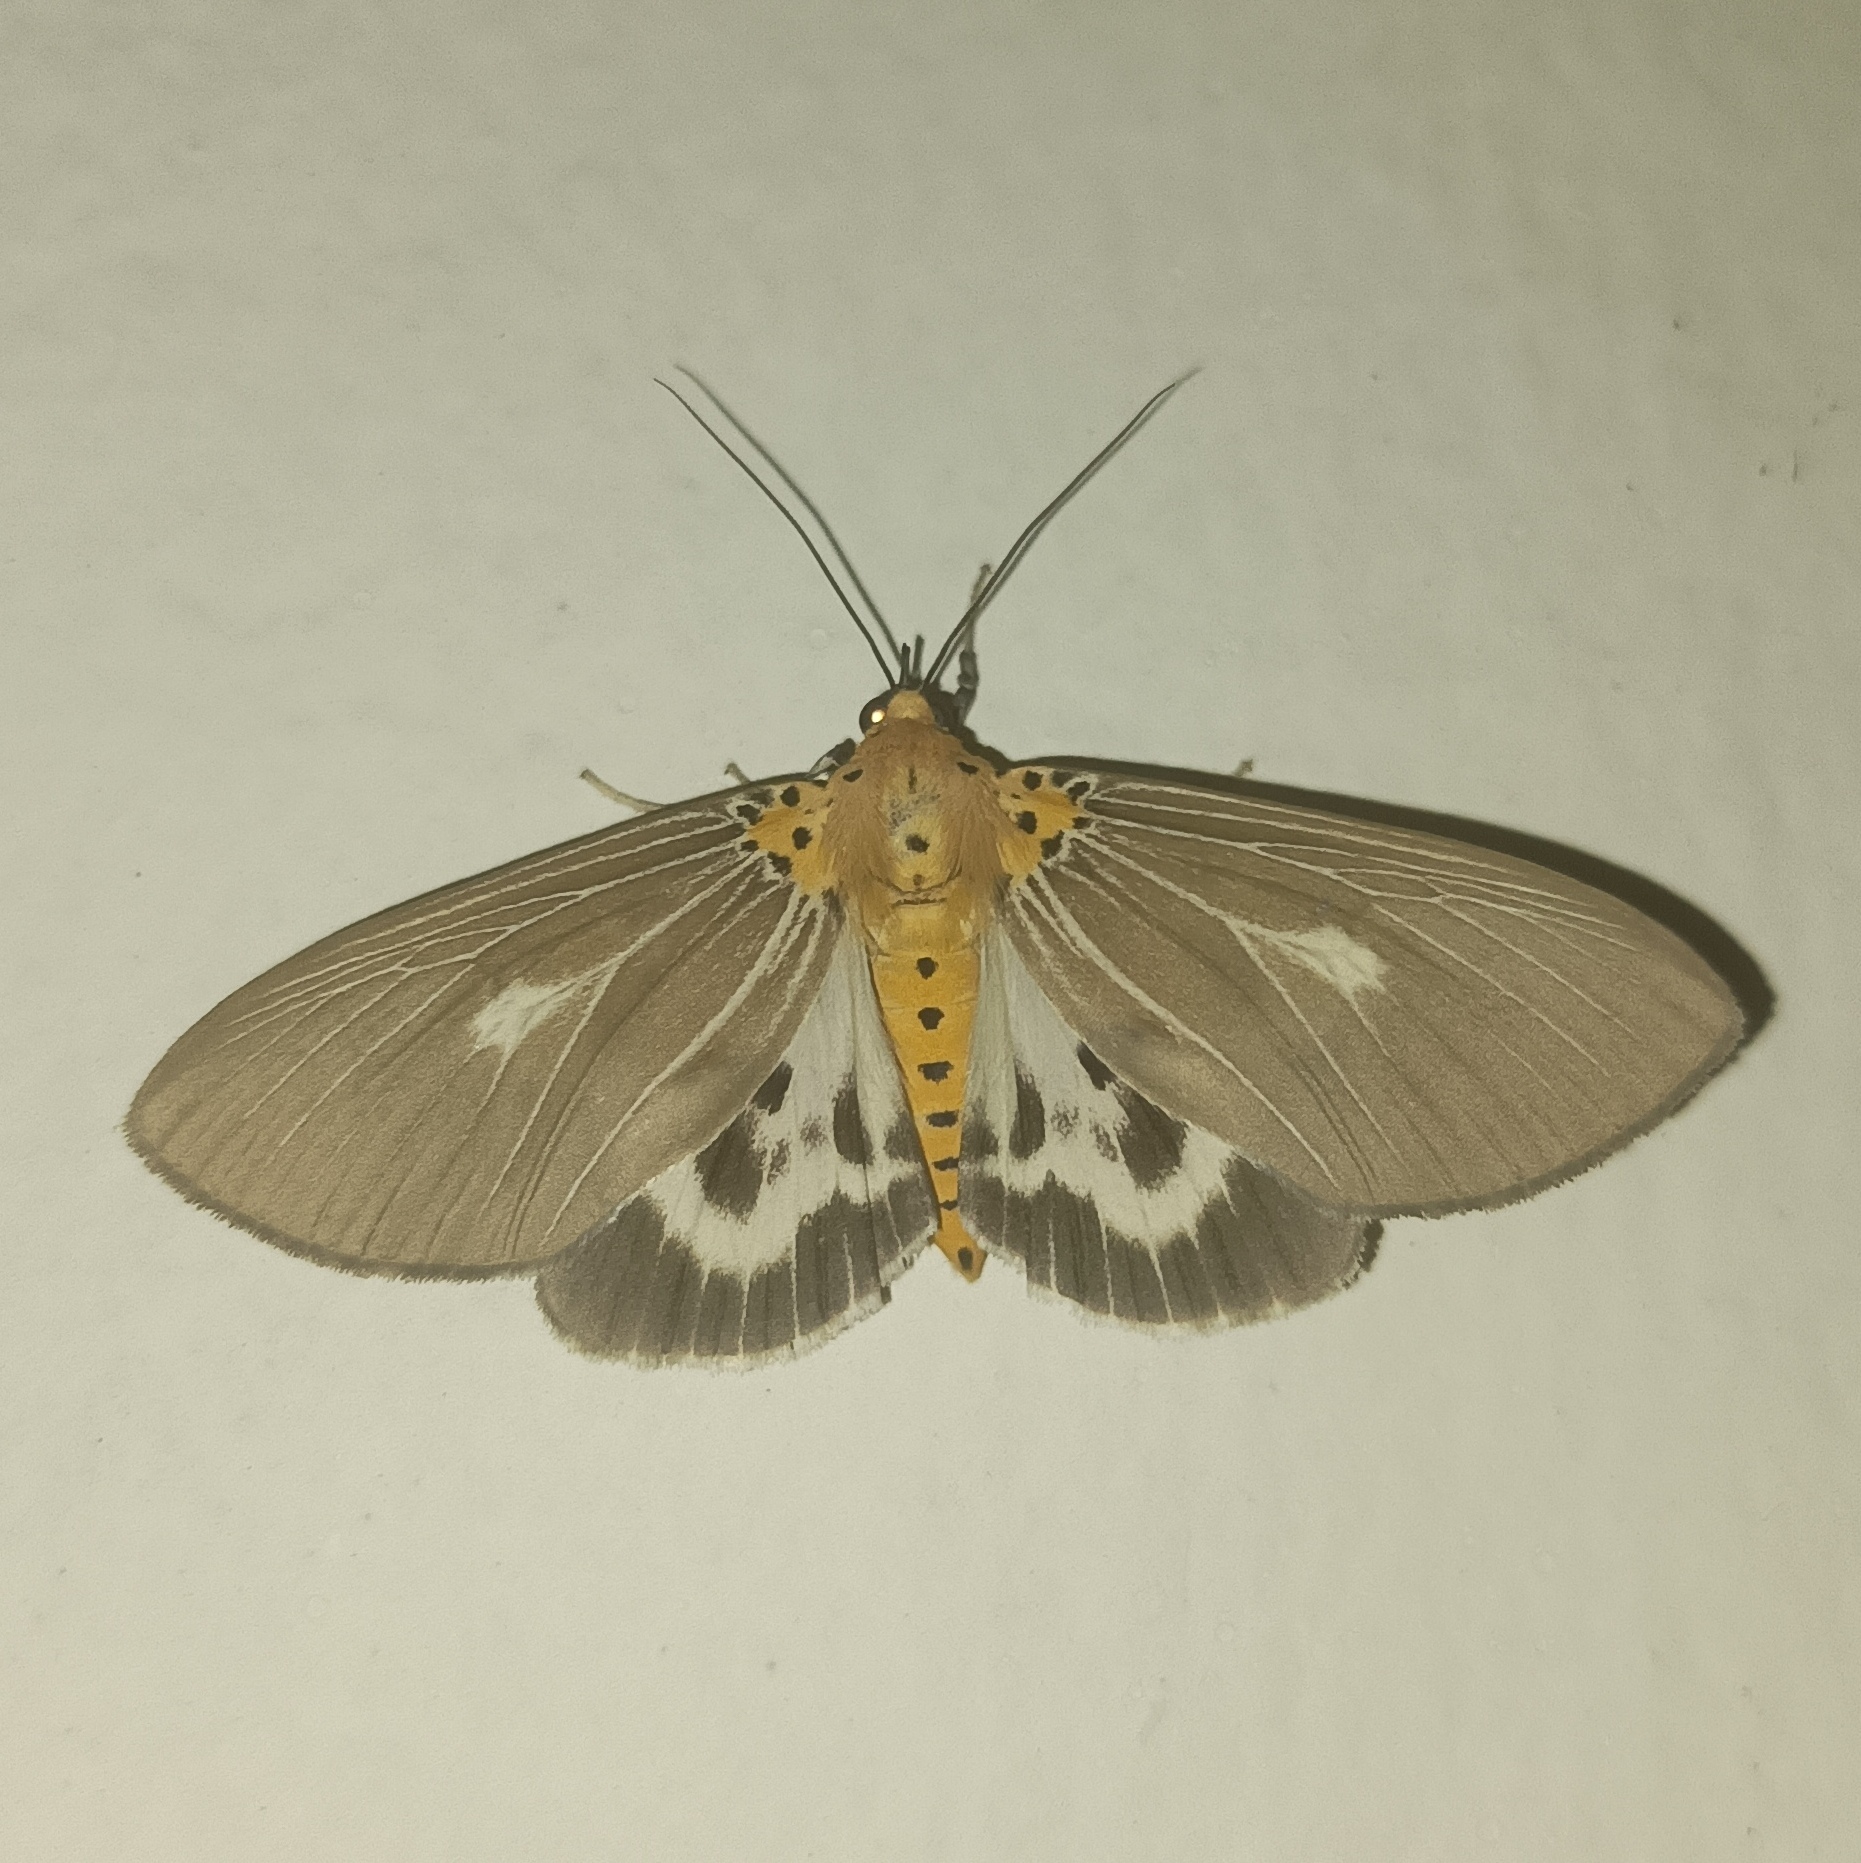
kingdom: Animalia
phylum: Arthropoda
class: Insecta
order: Lepidoptera
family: Erebidae
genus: Asota
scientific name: Asota canaraica
